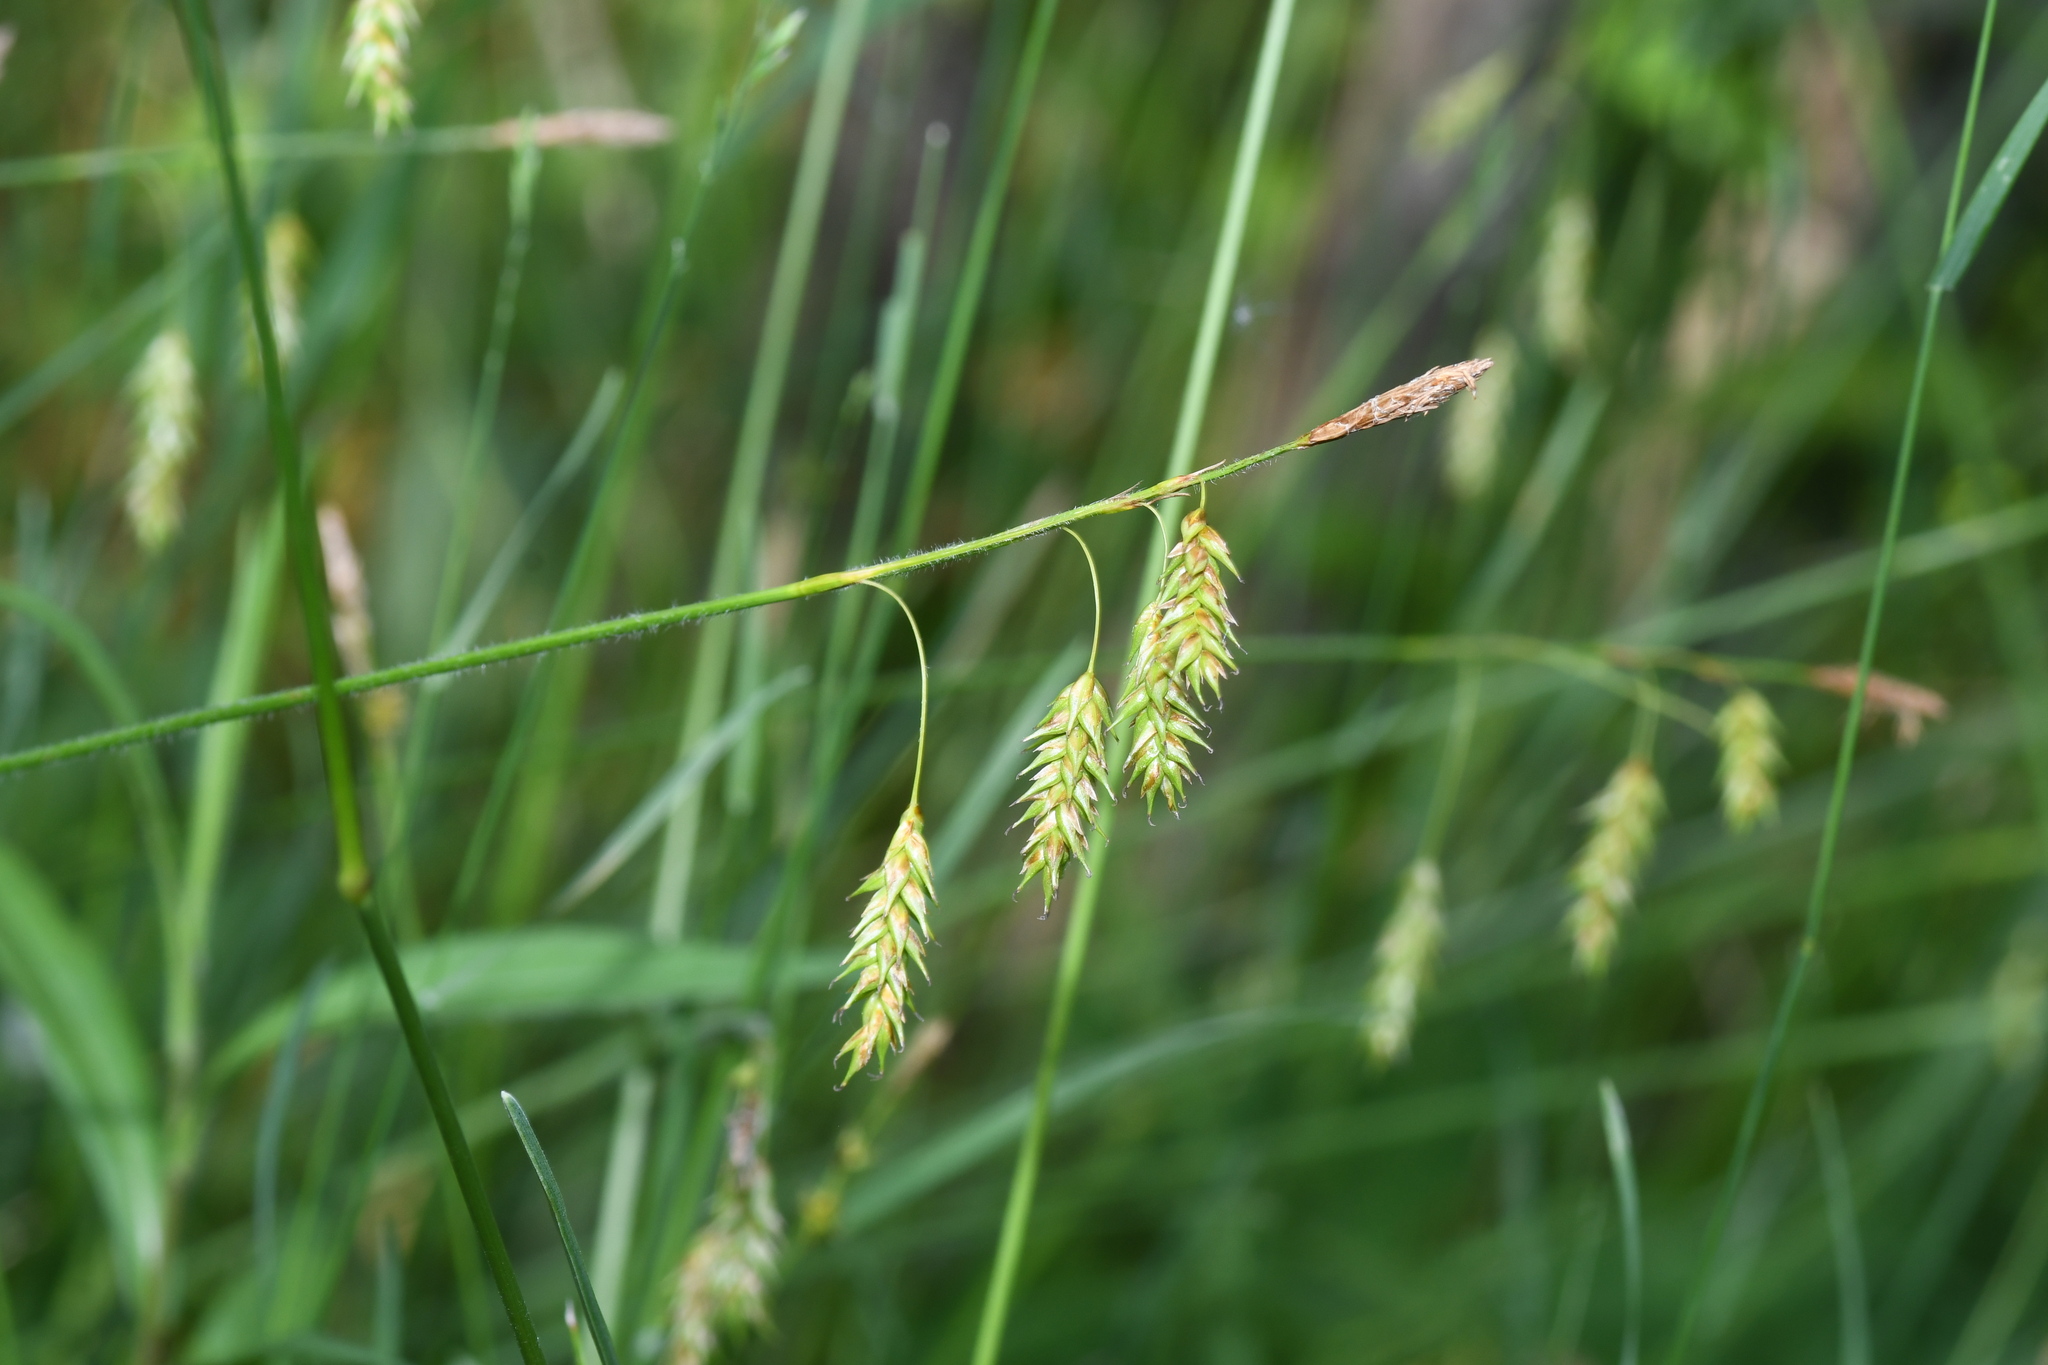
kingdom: Plantae
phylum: Tracheophyta
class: Liliopsida
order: Poales
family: Cyperaceae
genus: Carex
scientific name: Carex castanea
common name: Chestnut sedge
